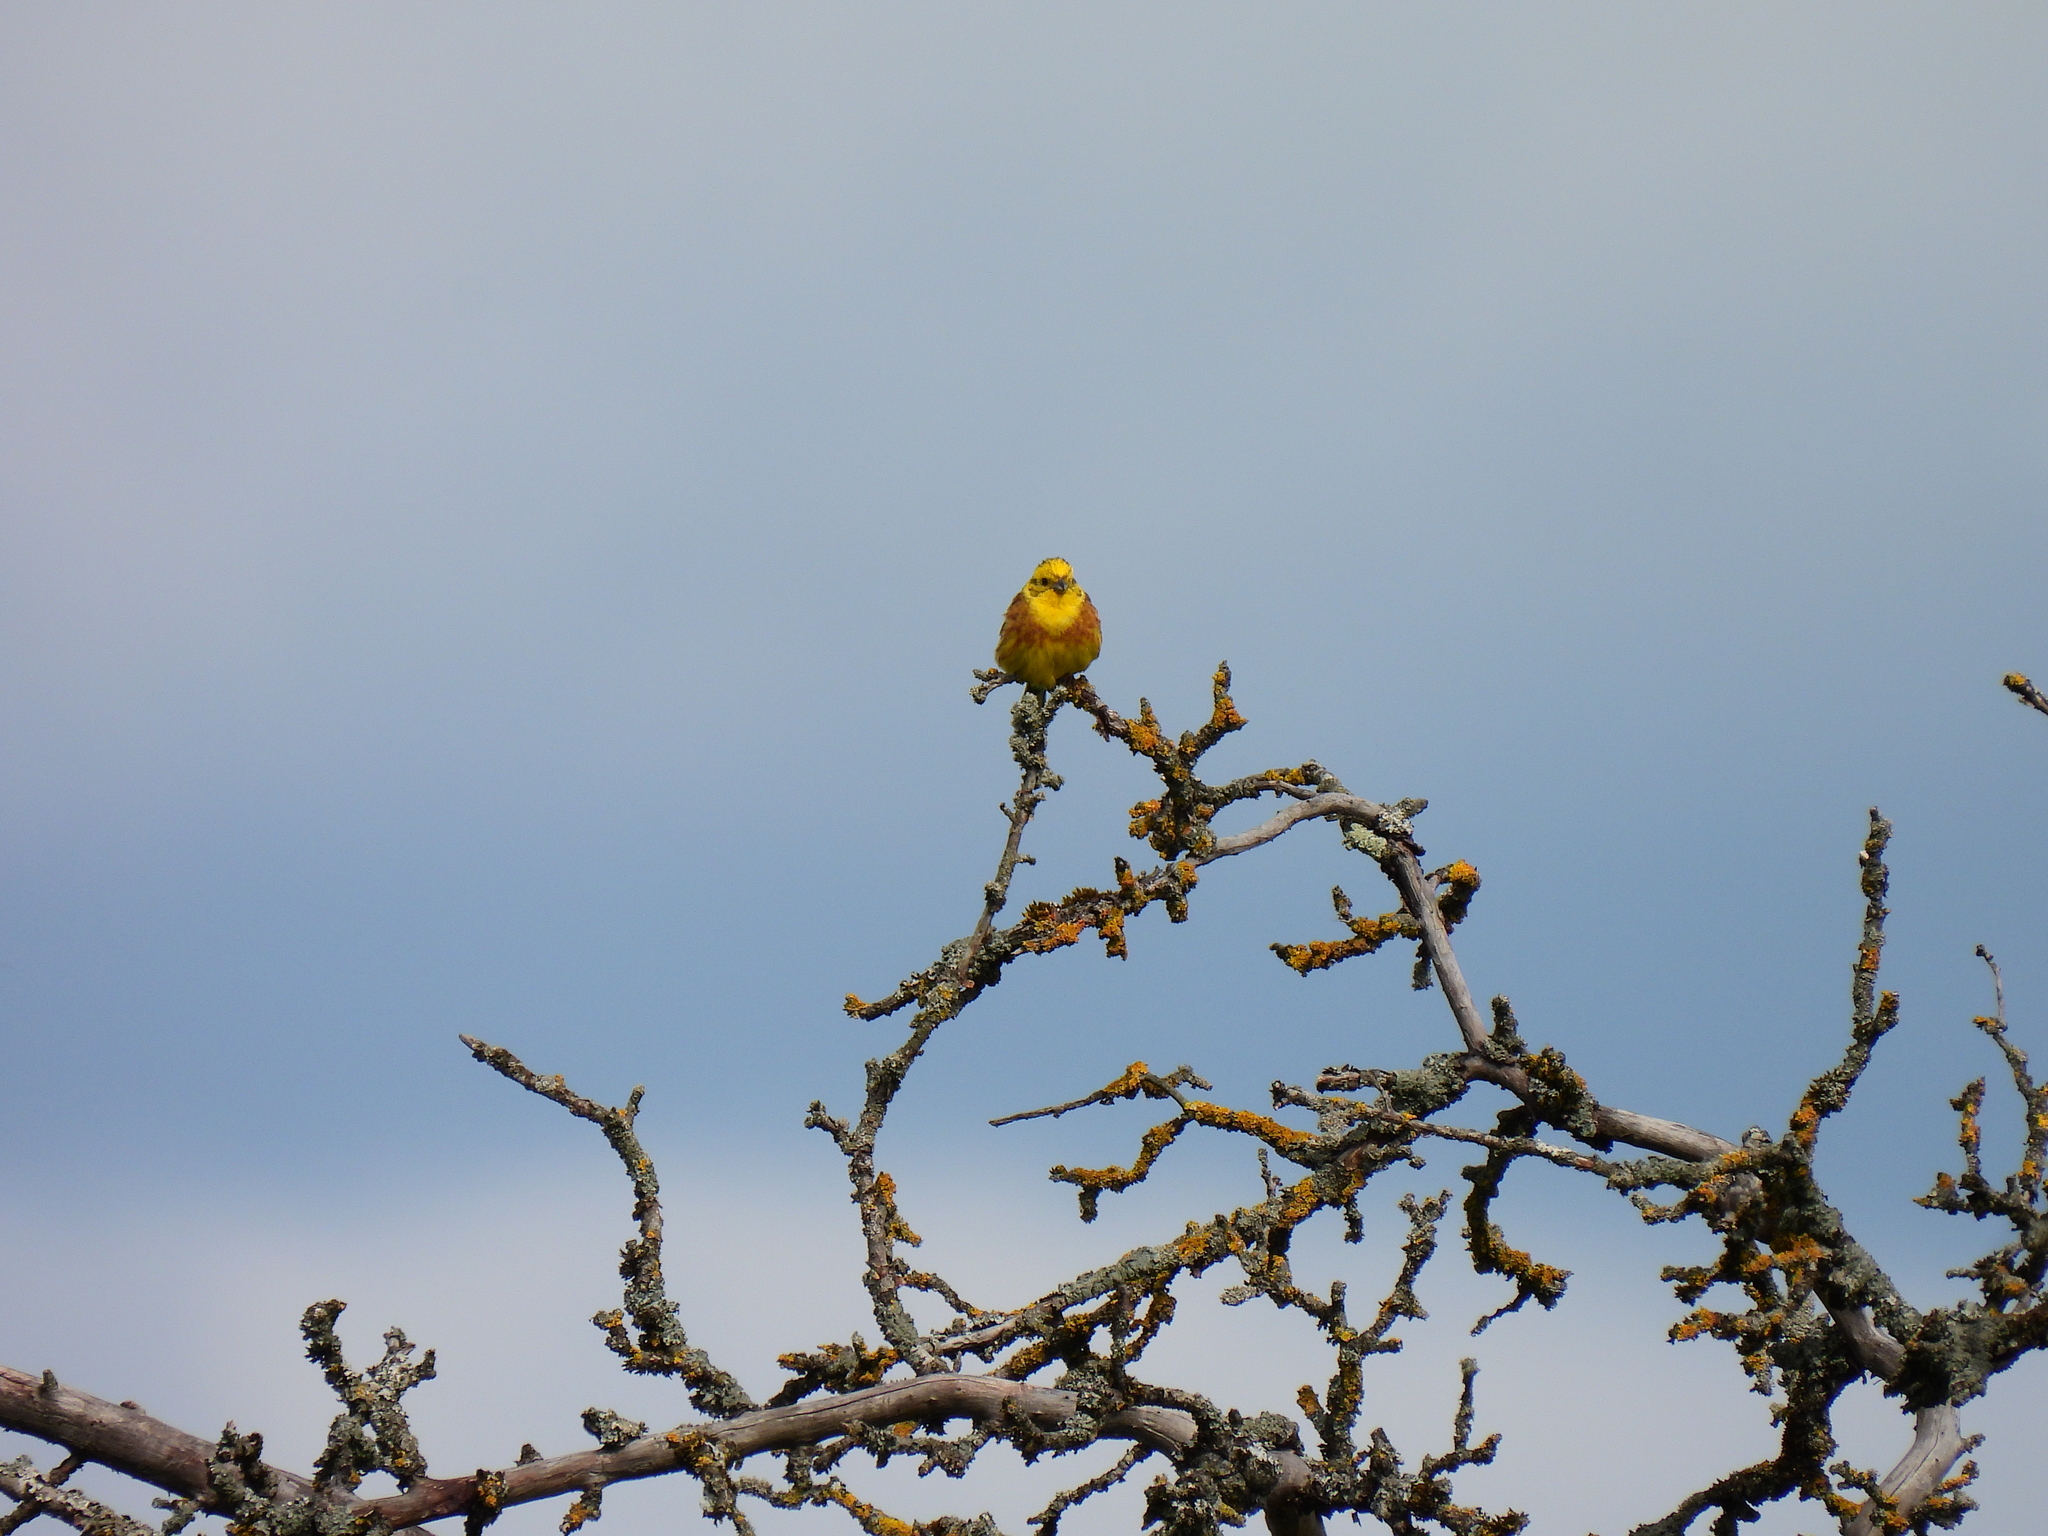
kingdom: Animalia
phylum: Chordata
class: Aves
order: Passeriformes
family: Emberizidae
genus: Emberiza
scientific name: Emberiza citrinella
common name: Yellowhammer
